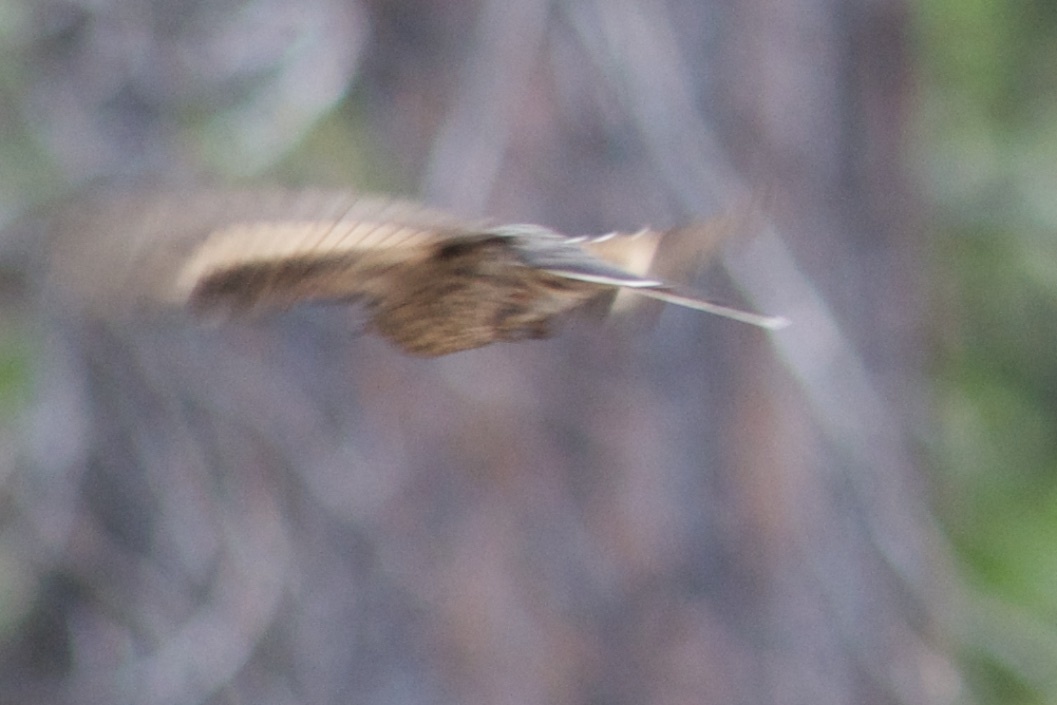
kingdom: Animalia
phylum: Chordata
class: Aves
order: Passeriformes
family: Turdidae
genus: Myadestes
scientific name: Myadestes townsendi
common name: Townsend's solitaire
